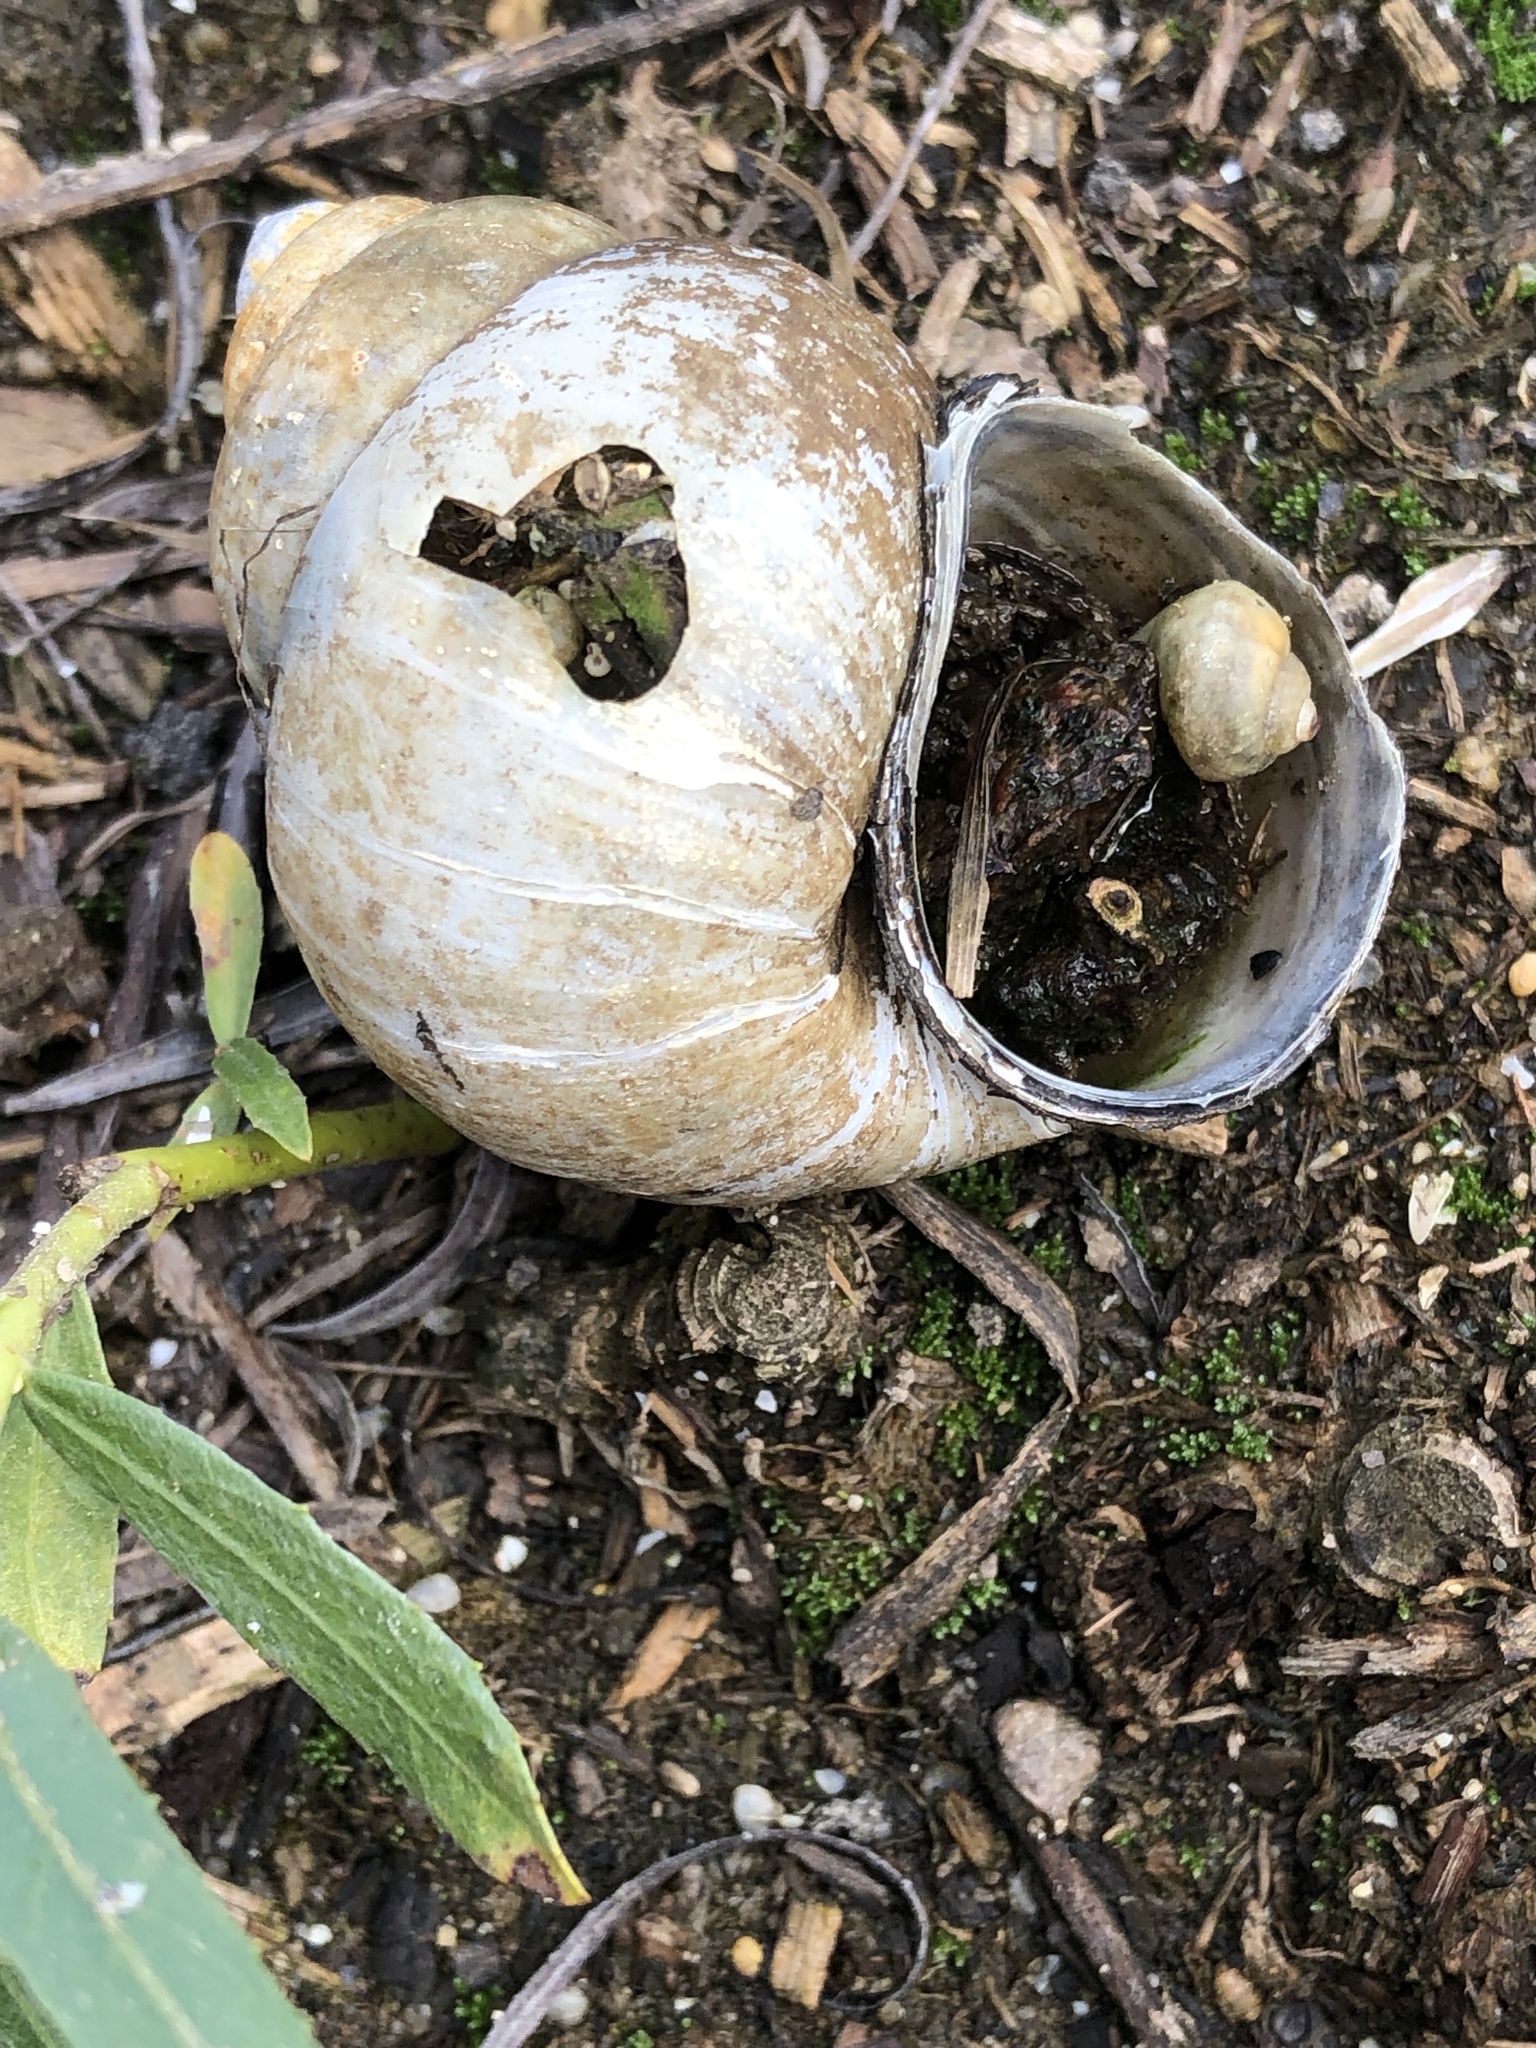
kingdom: Animalia
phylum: Mollusca
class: Gastropoda
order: Architaenioglossa
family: Viviparidae
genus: Cipangopaludina
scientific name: Cipangopaludina chinensis
